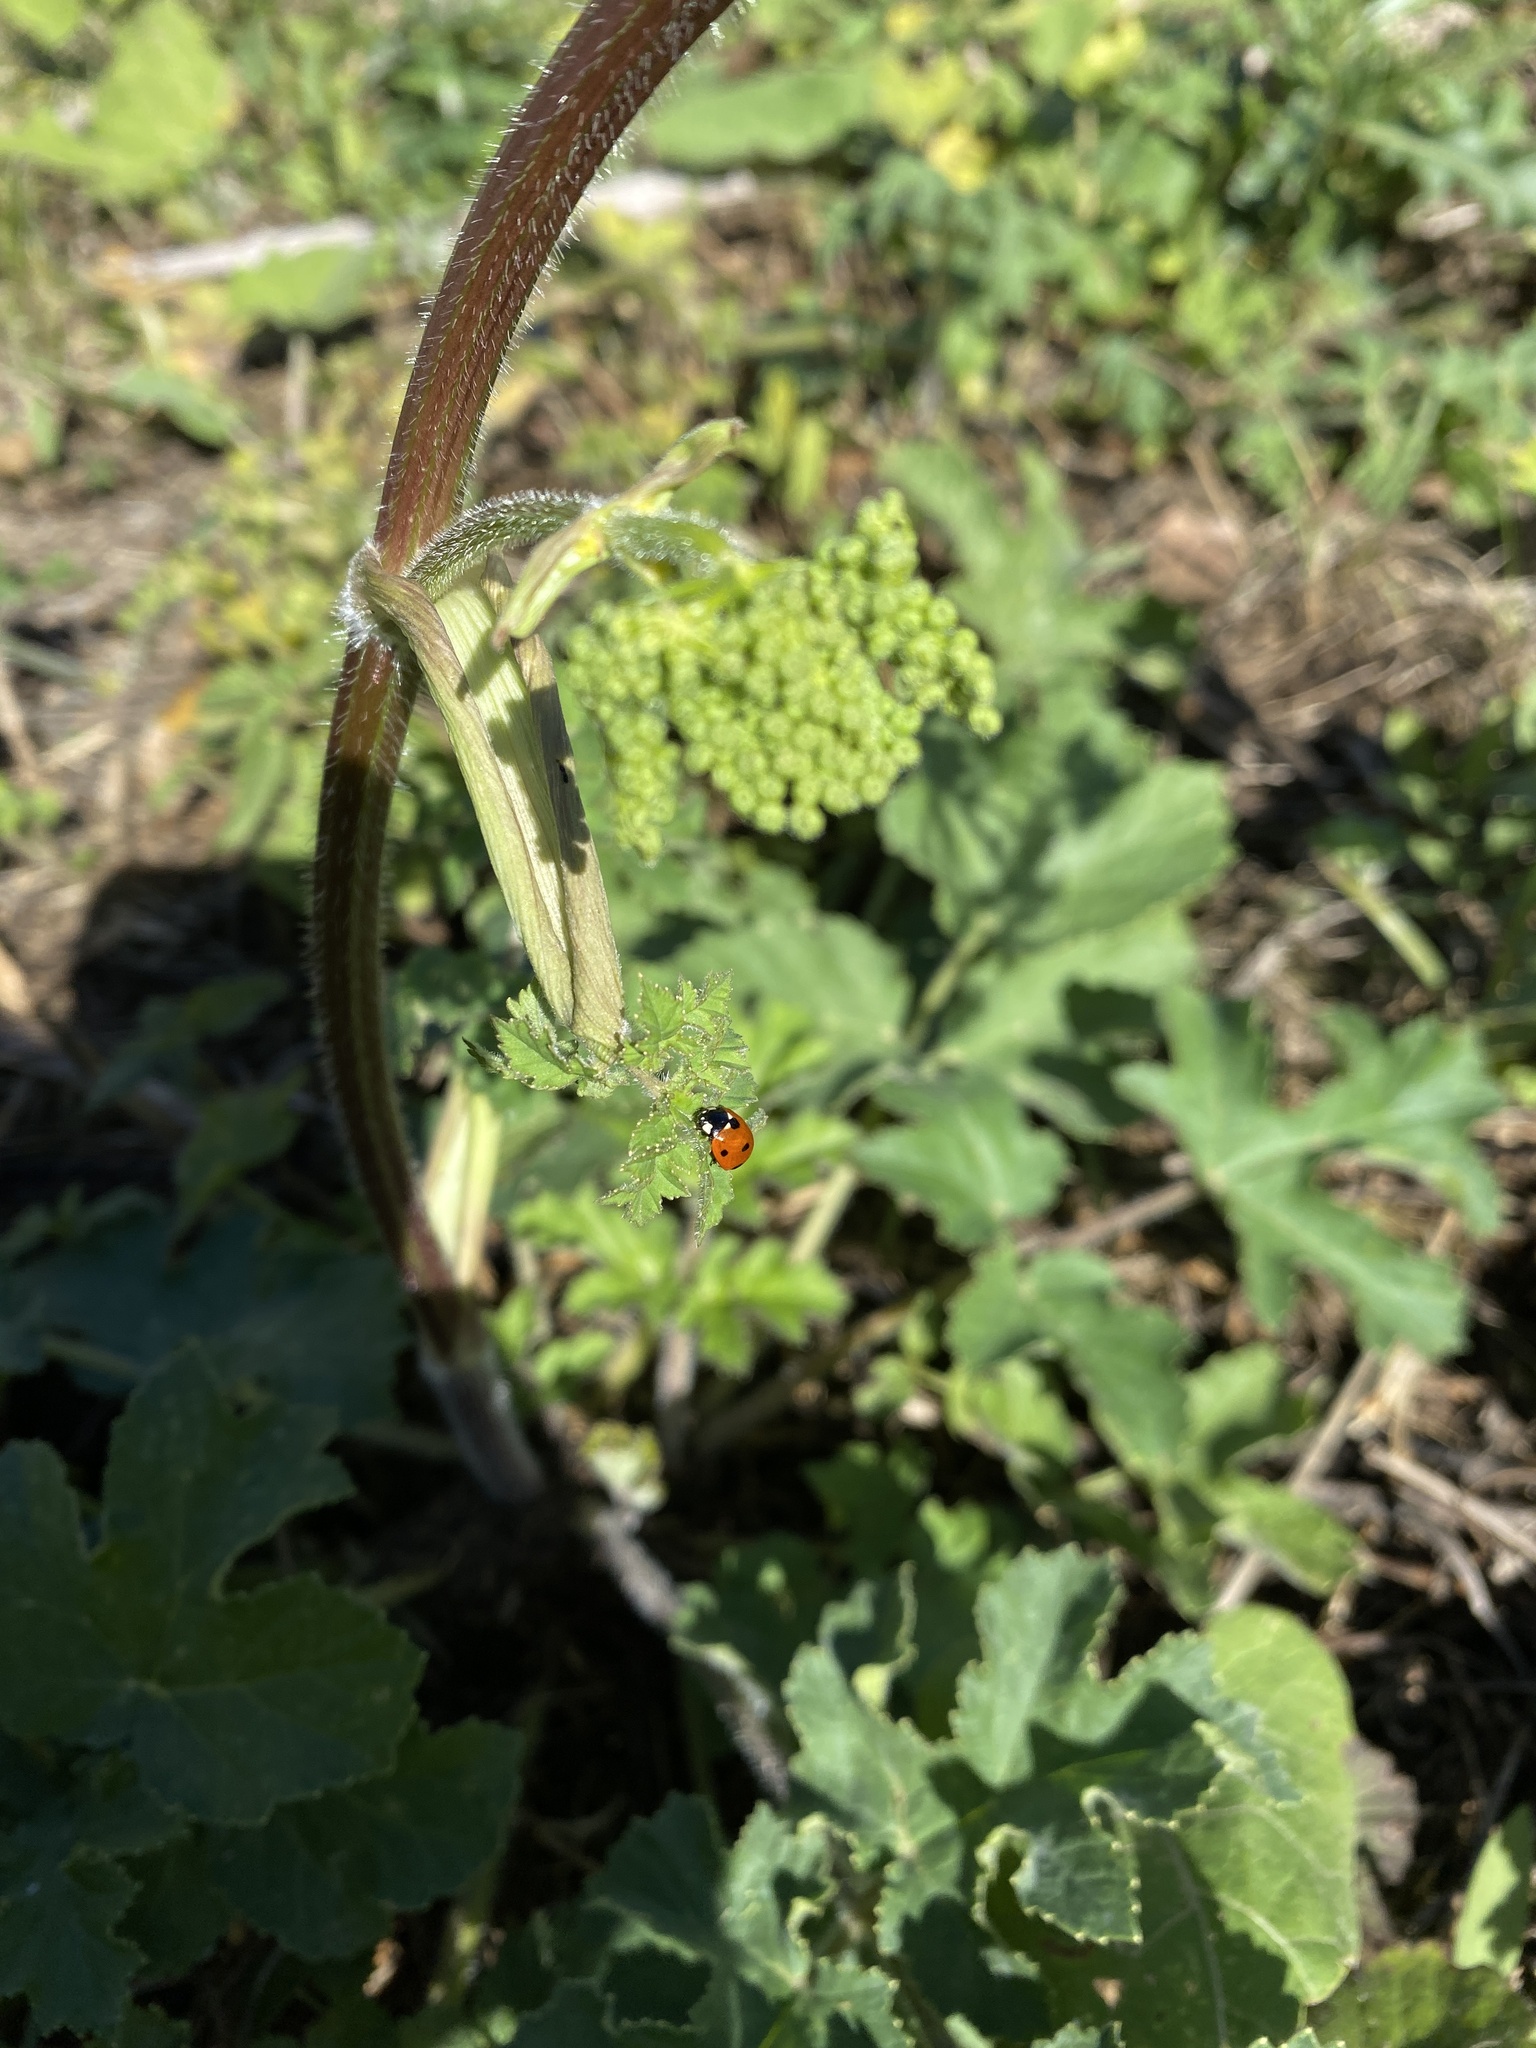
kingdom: Animalia
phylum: Arthropoda
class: Insecta
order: Coleoptera
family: Coccinellidae
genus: Coccinella
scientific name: Coccinella septempunctata
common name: Sevenspotted lady beetle
